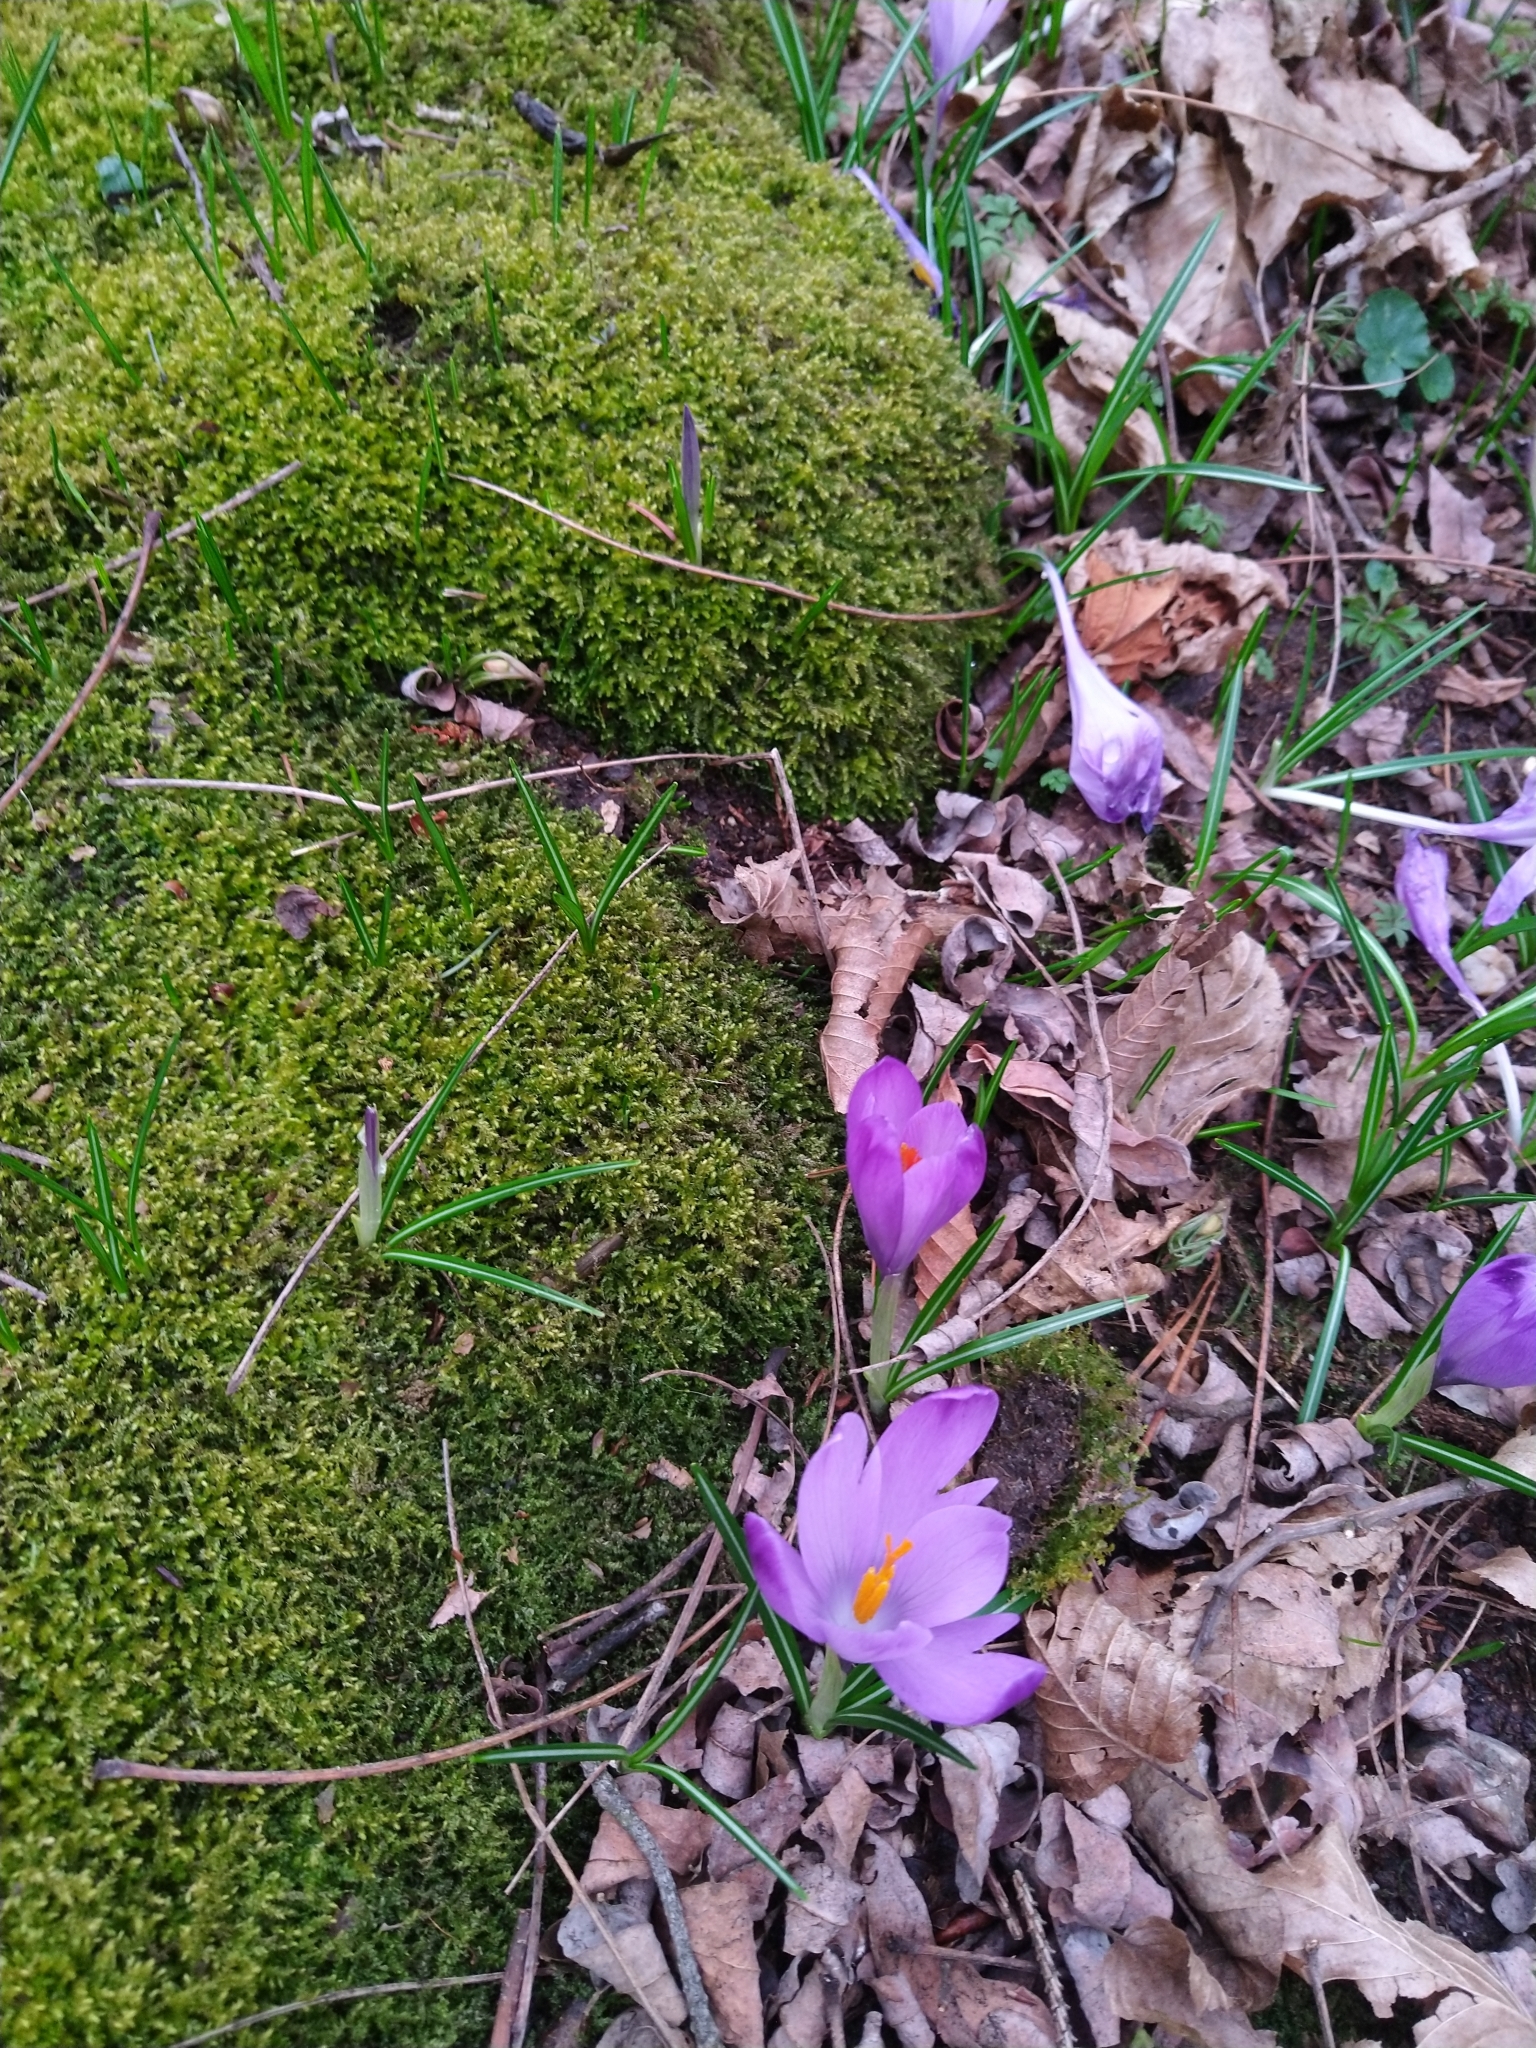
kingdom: Plantae
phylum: Tracheophyta
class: Liliopsida
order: Asparagales
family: Iridaceae
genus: Crocus
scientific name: Crocus heuffelianus
